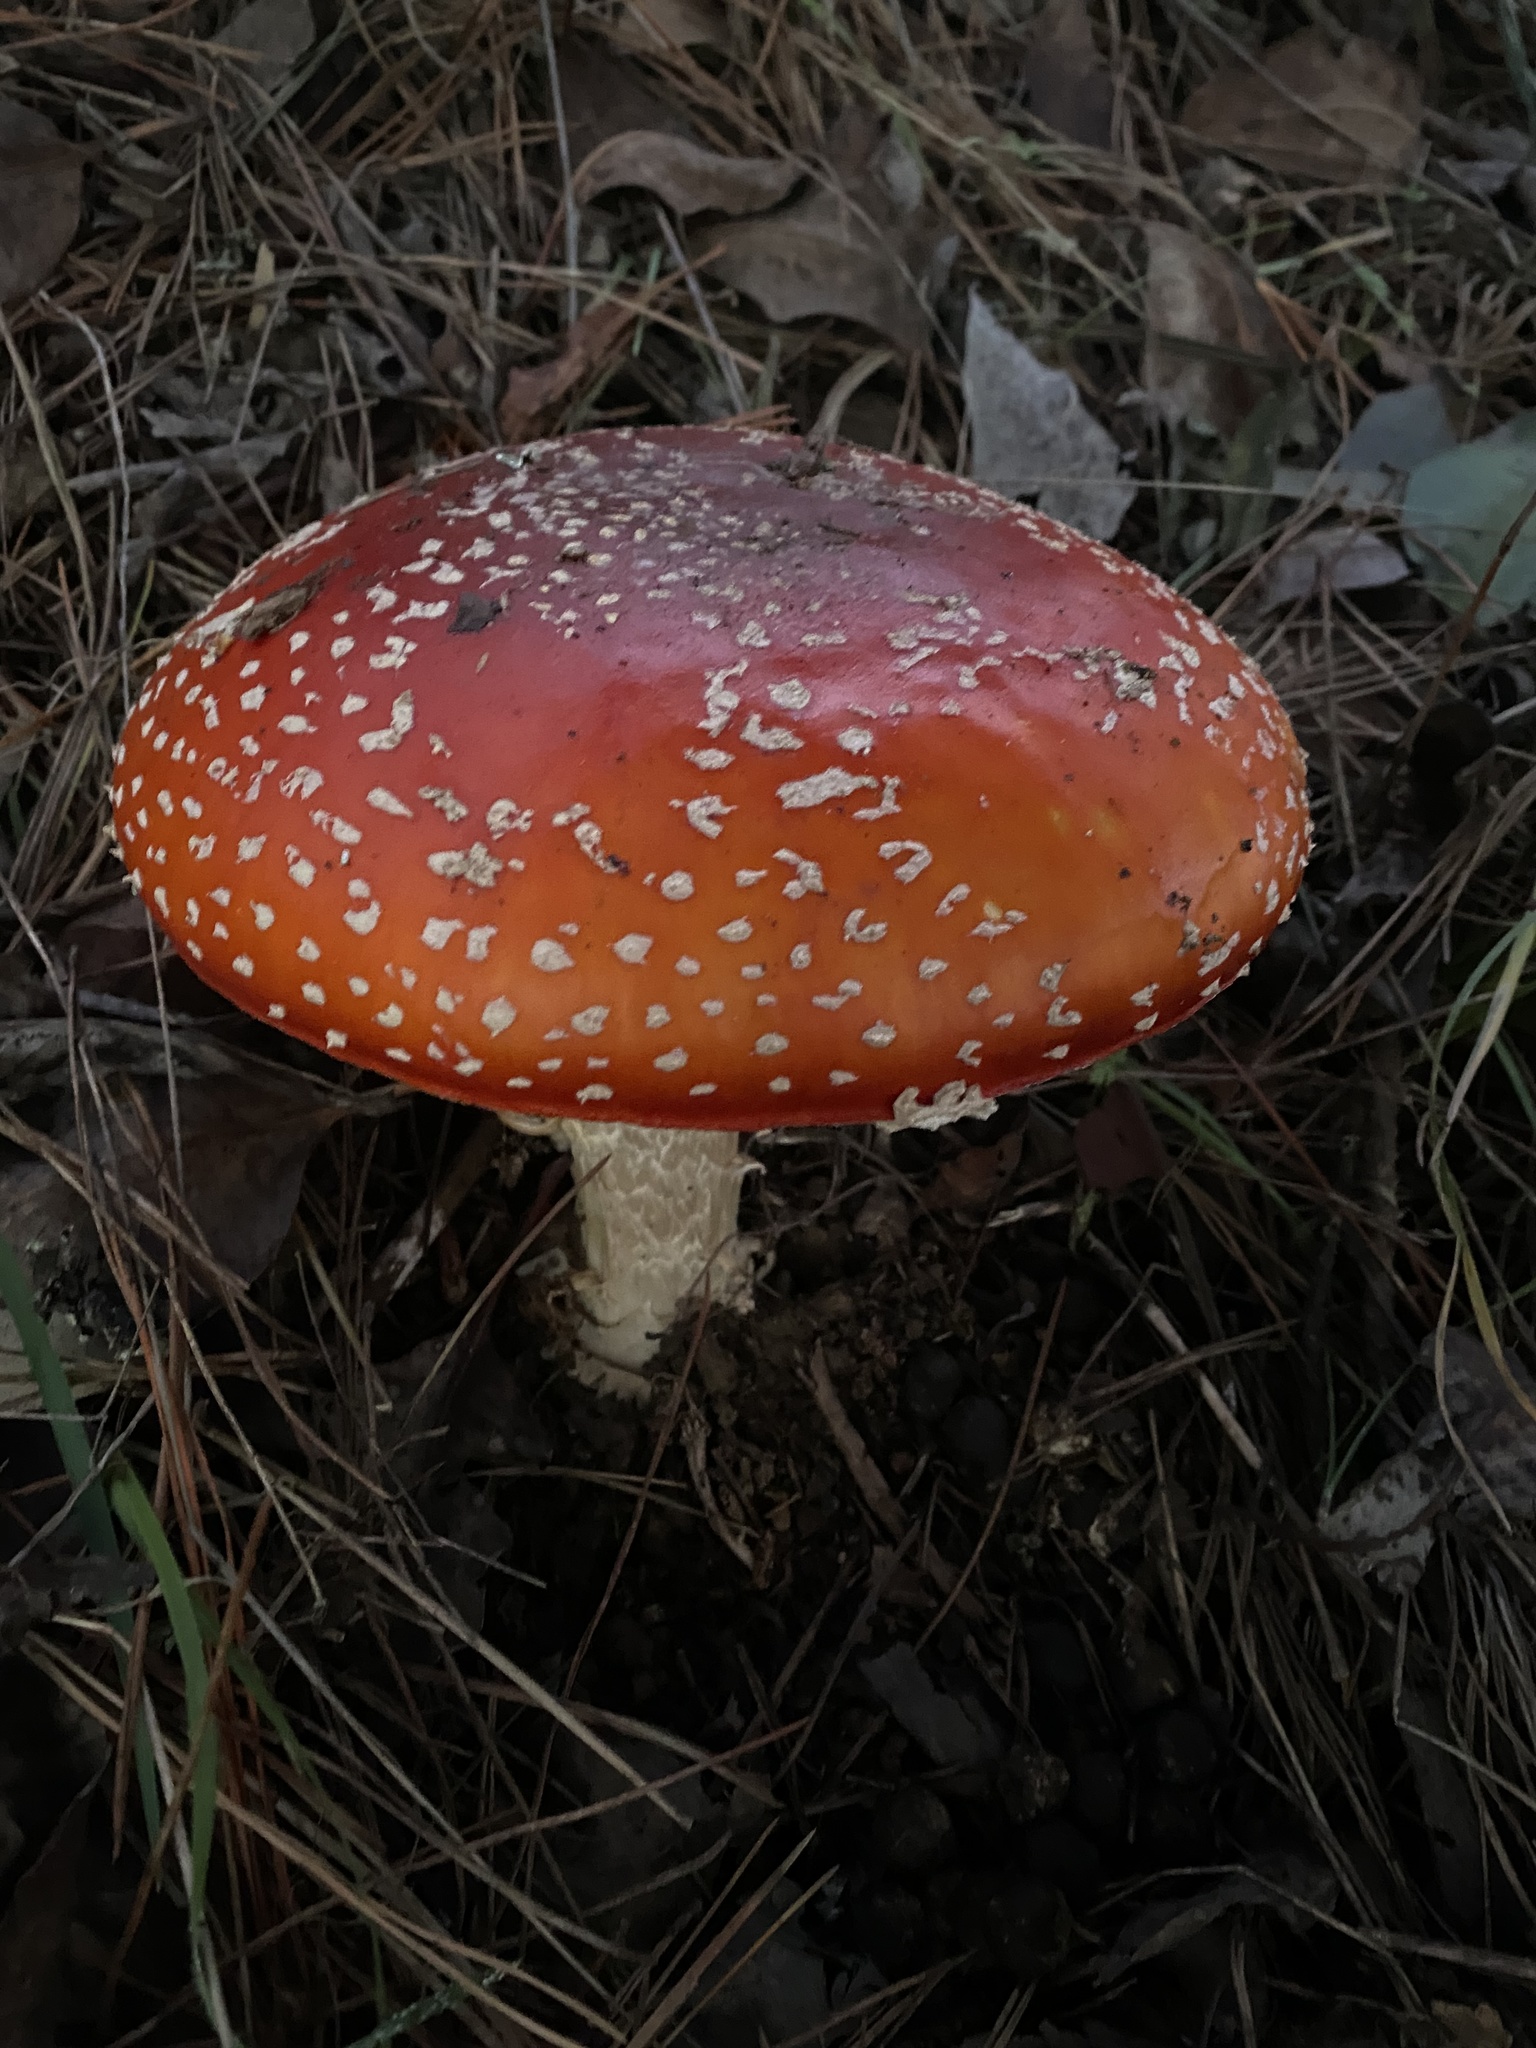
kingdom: Fungi
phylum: Basidiomycota
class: Agaricomycetes
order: Agaricales
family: Amanitaceae
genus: Amanita
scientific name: Amanita muscaria
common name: Fly agaric
